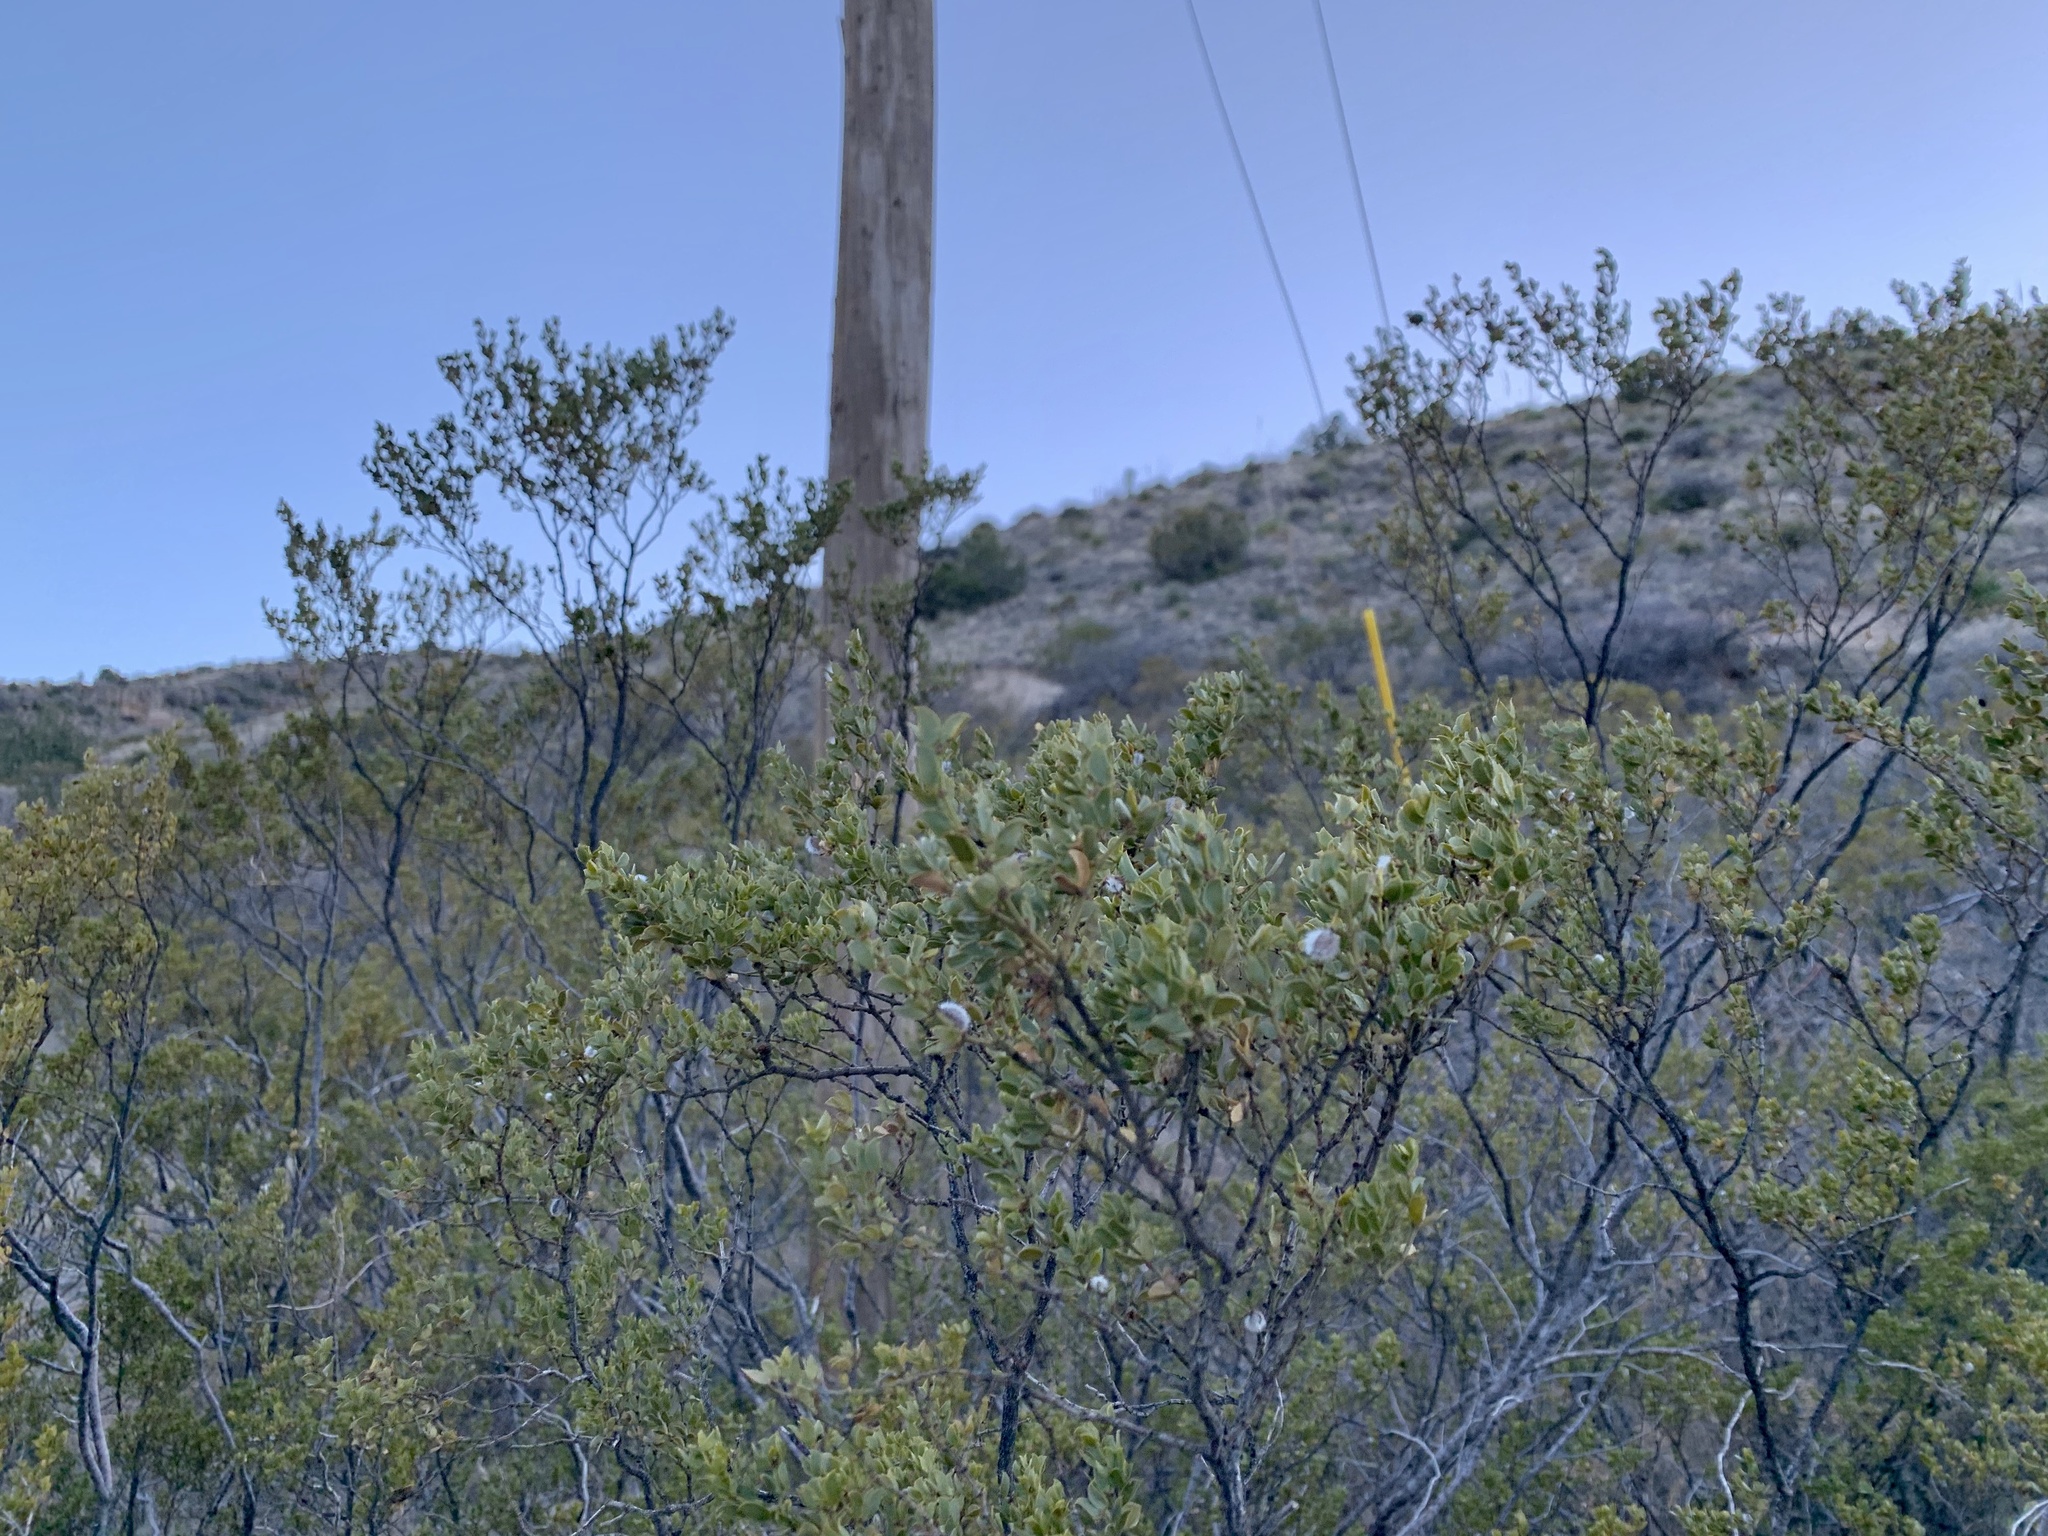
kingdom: Plantae
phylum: Tracheophyta
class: Magnoliopsida
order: Zygophyllales
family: Zygophyllaceae
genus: Larrea
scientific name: Larrea tridentata
